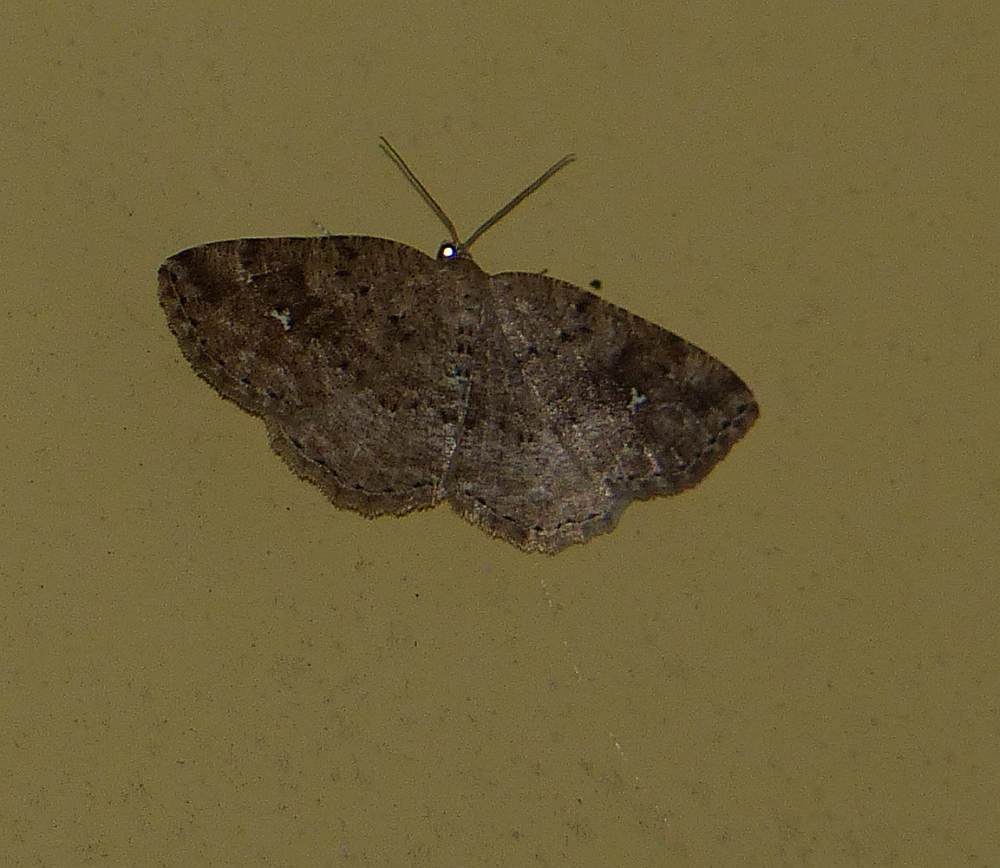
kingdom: Animalia
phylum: Arthropoda
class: Insecta
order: Lepidoptera
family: Geometridae
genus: Homochlodes
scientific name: Homochlodes fritillaria
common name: Pale homochlodes
